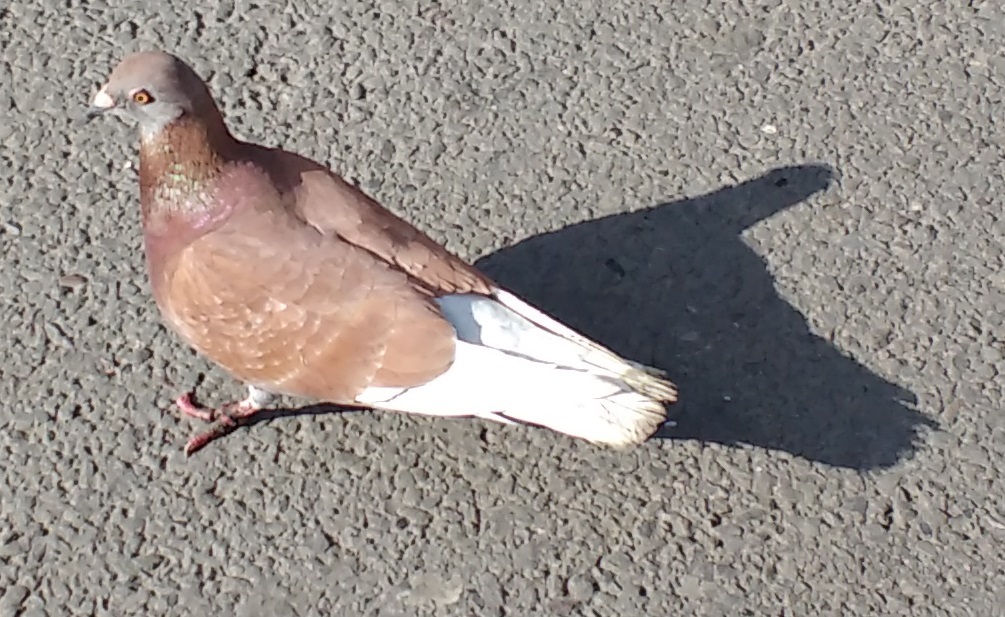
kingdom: Animalia
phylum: Chordata
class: Aves
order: Columbiformes
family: Columbidae
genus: Columba
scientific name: Columba livia
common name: Rock pigeon
